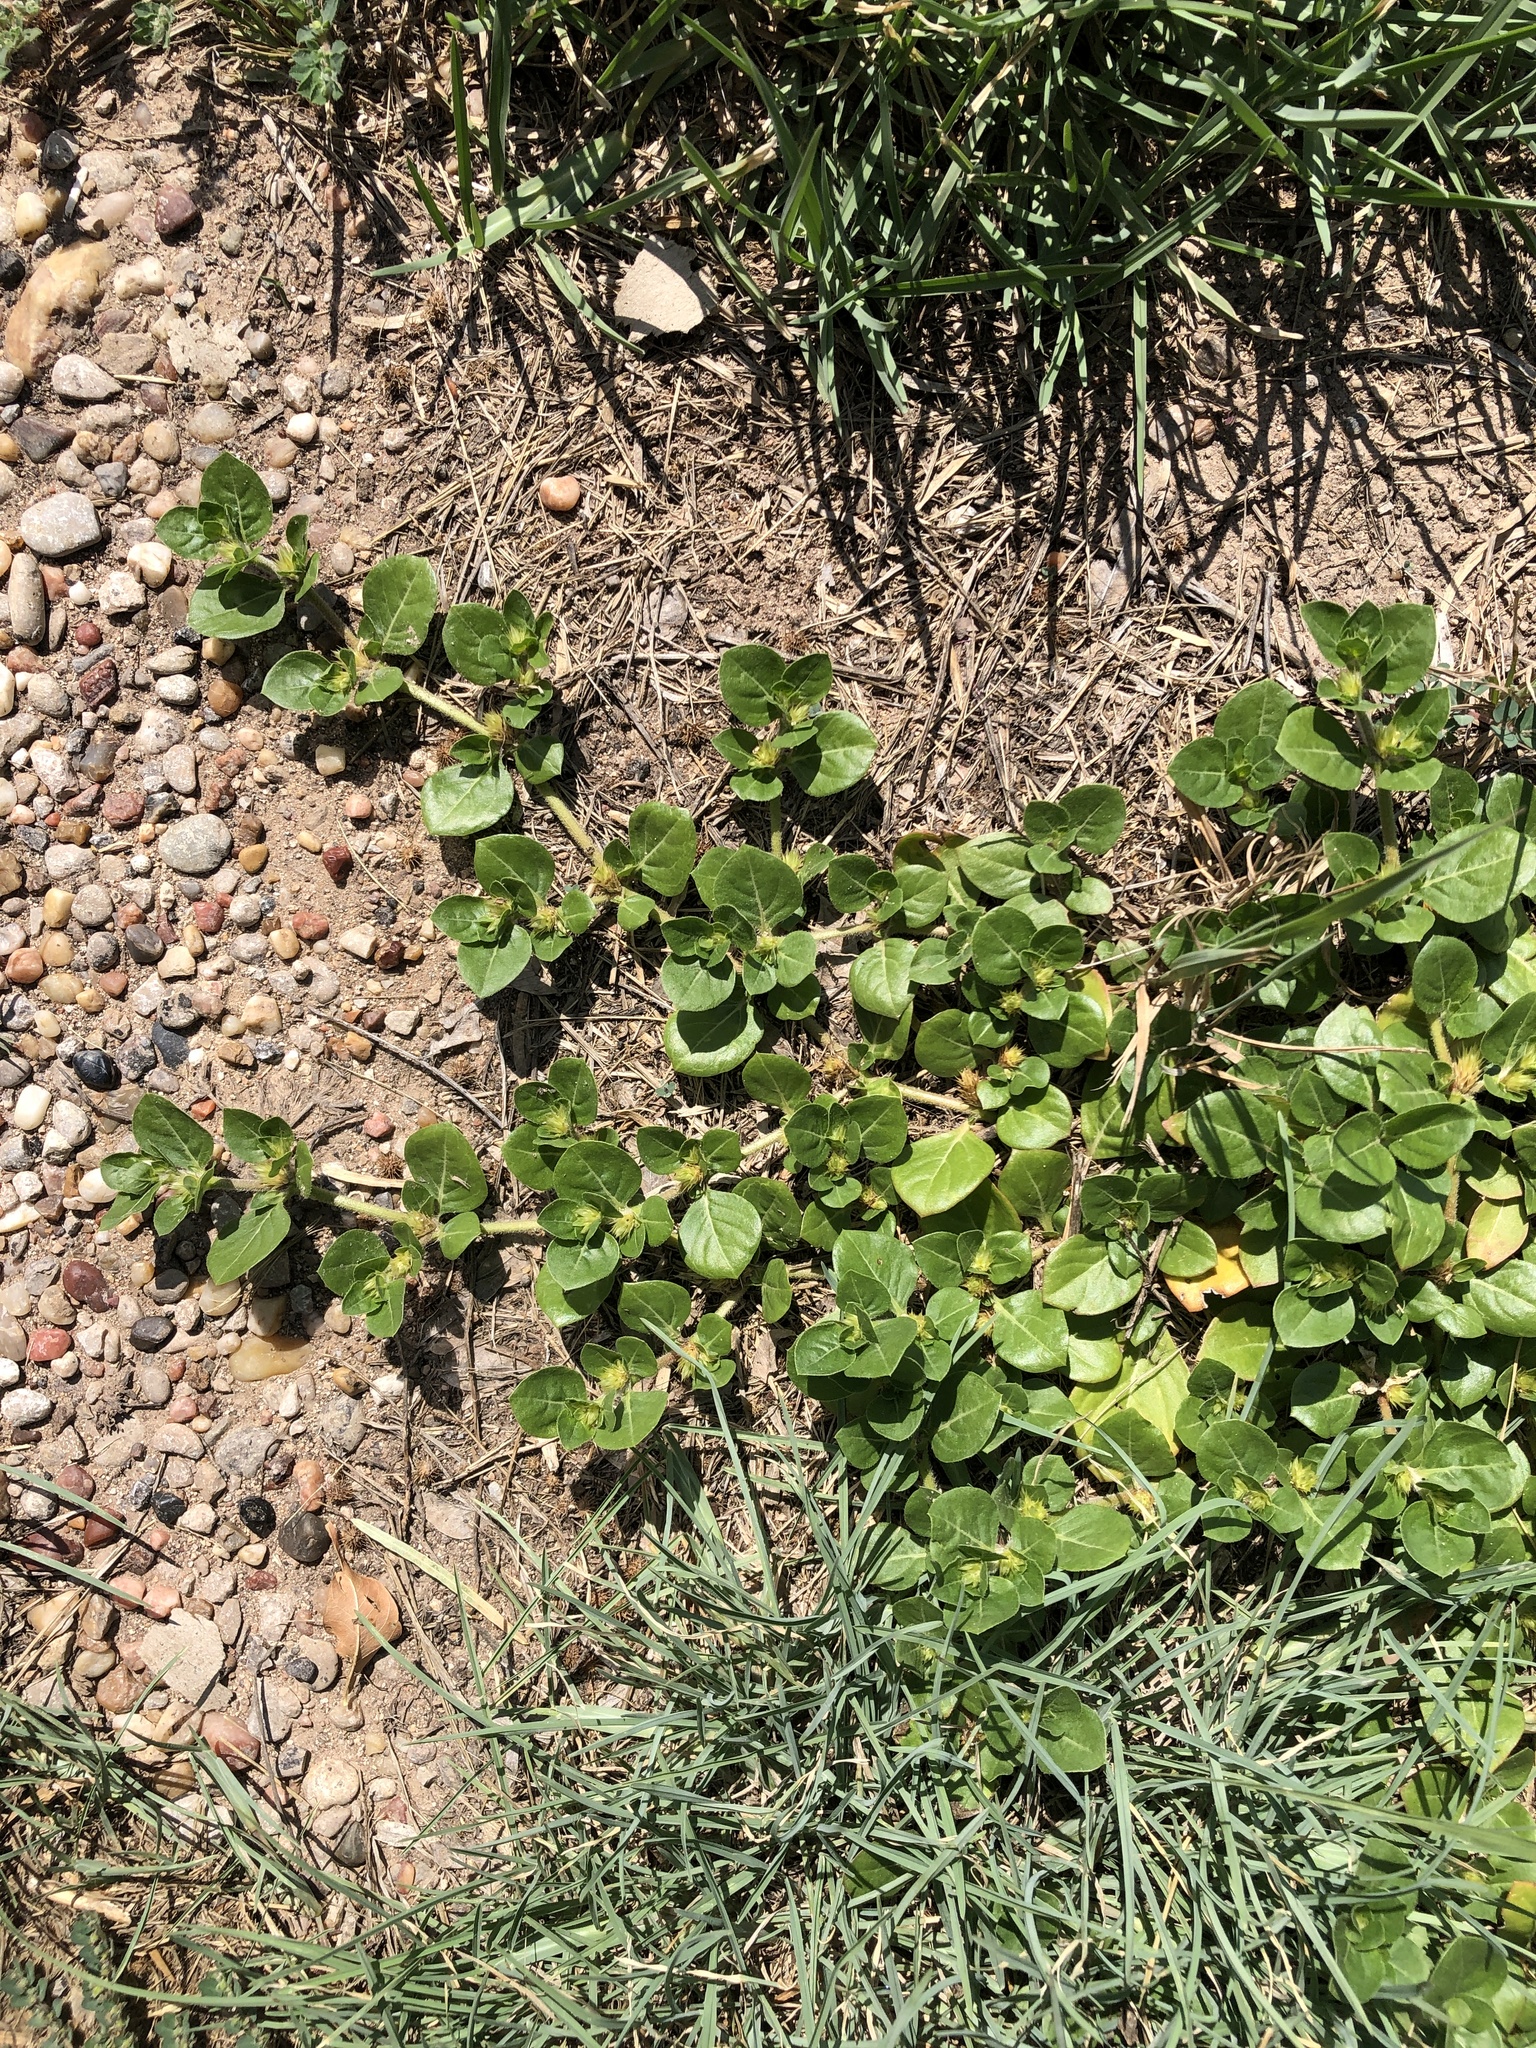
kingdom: Plantae
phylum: Tracheophyta
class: Magnoliopsida
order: Caryophyllales
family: Amaranthaceae
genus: Alternanthera
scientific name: Alternanthera pungens
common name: Khakiweed
